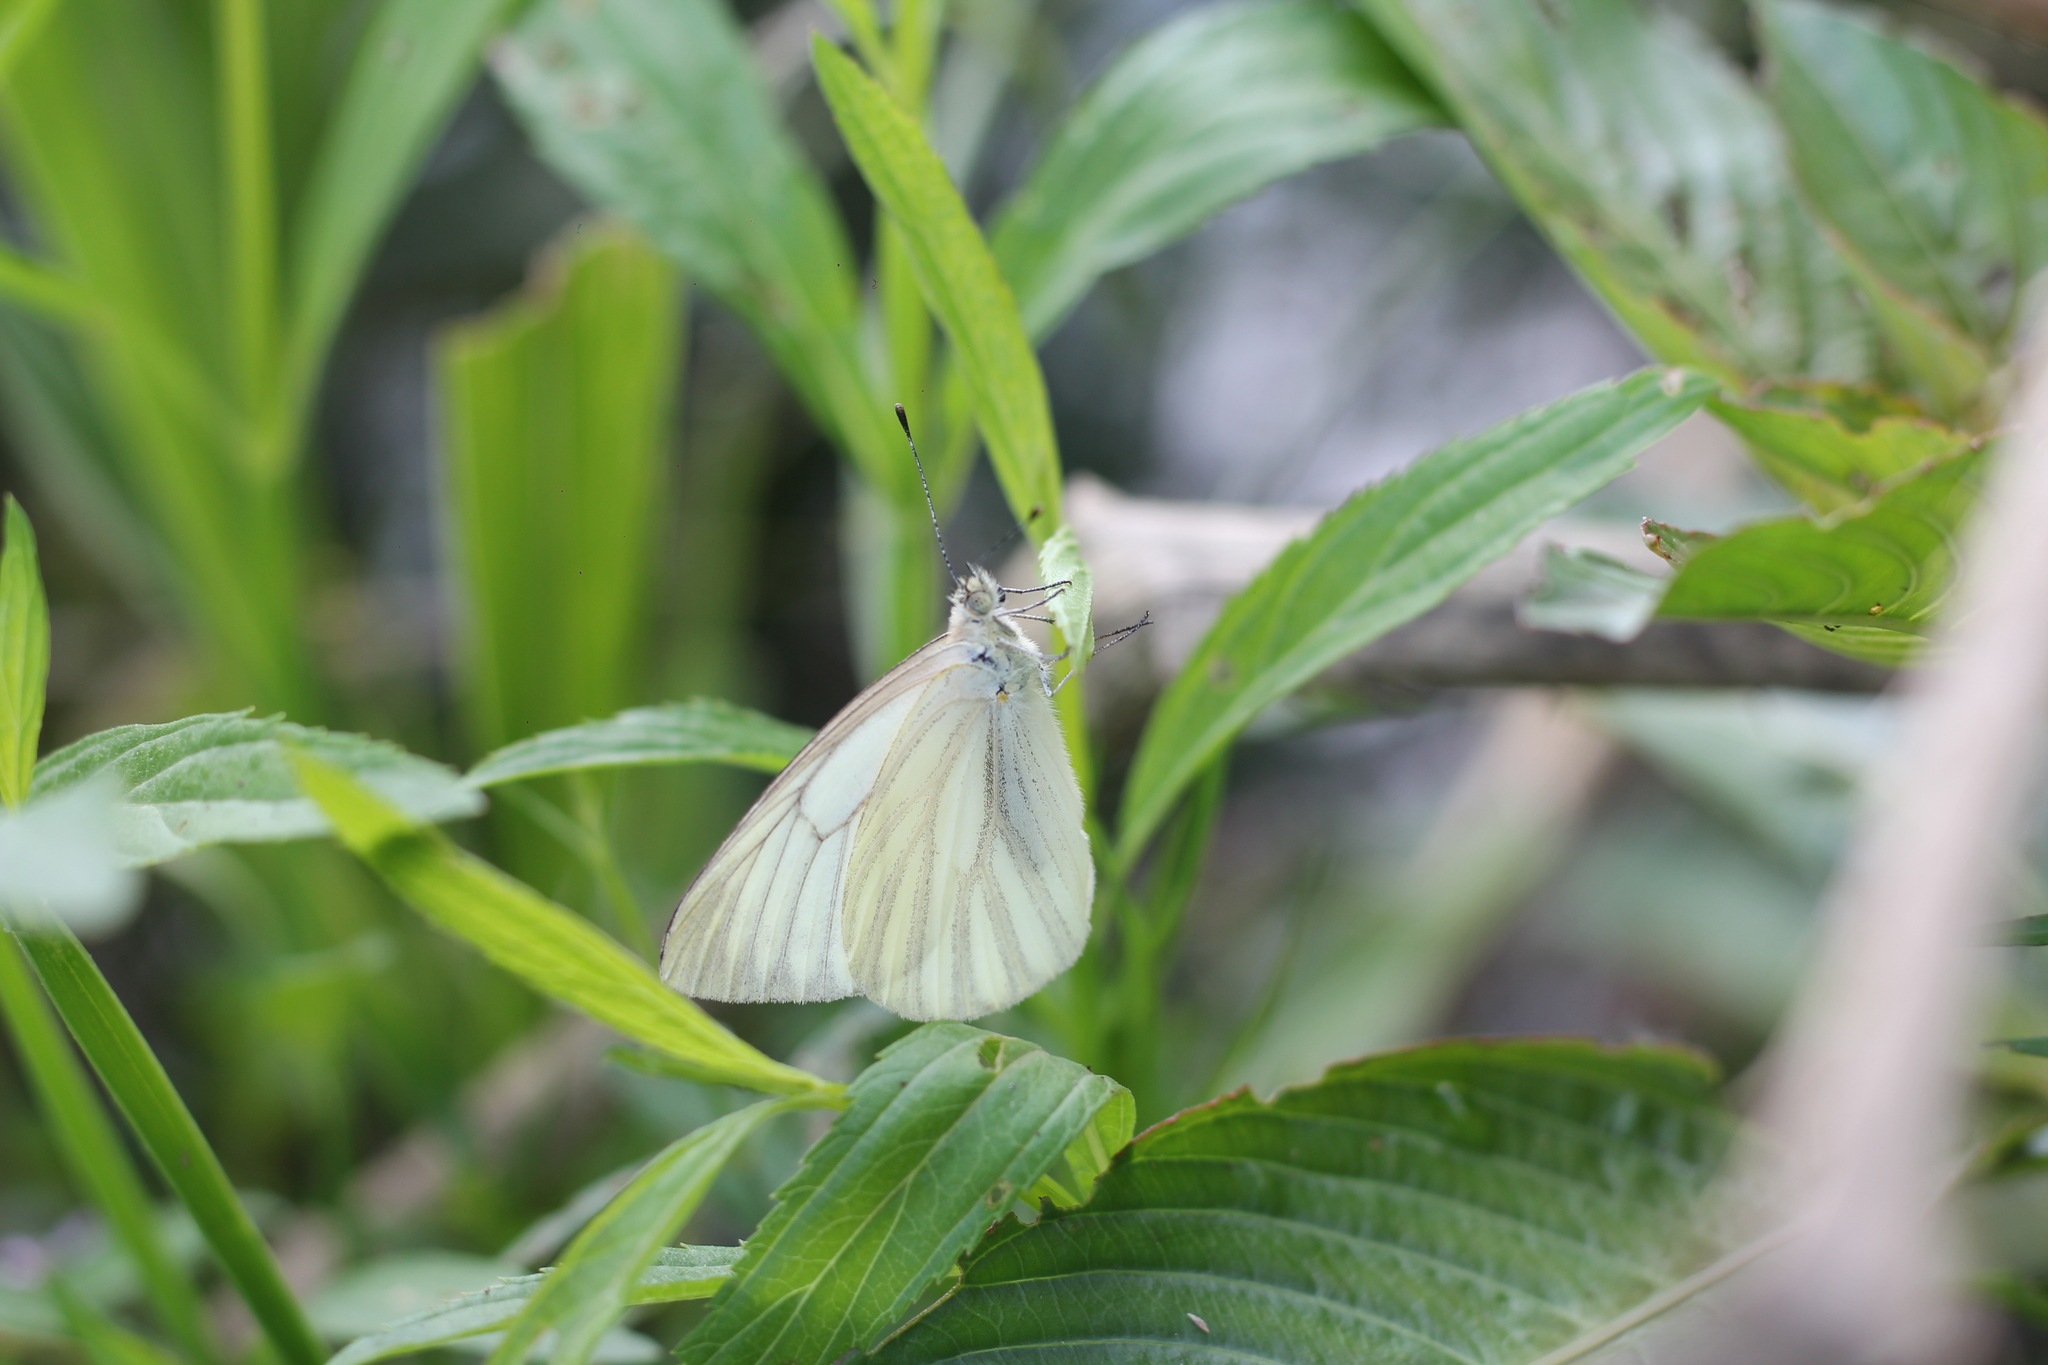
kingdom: Animalia
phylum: Arthropoda
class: Insecta
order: Lepidoptera
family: Pieridae
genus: Theochila
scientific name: Theochila maenacte
